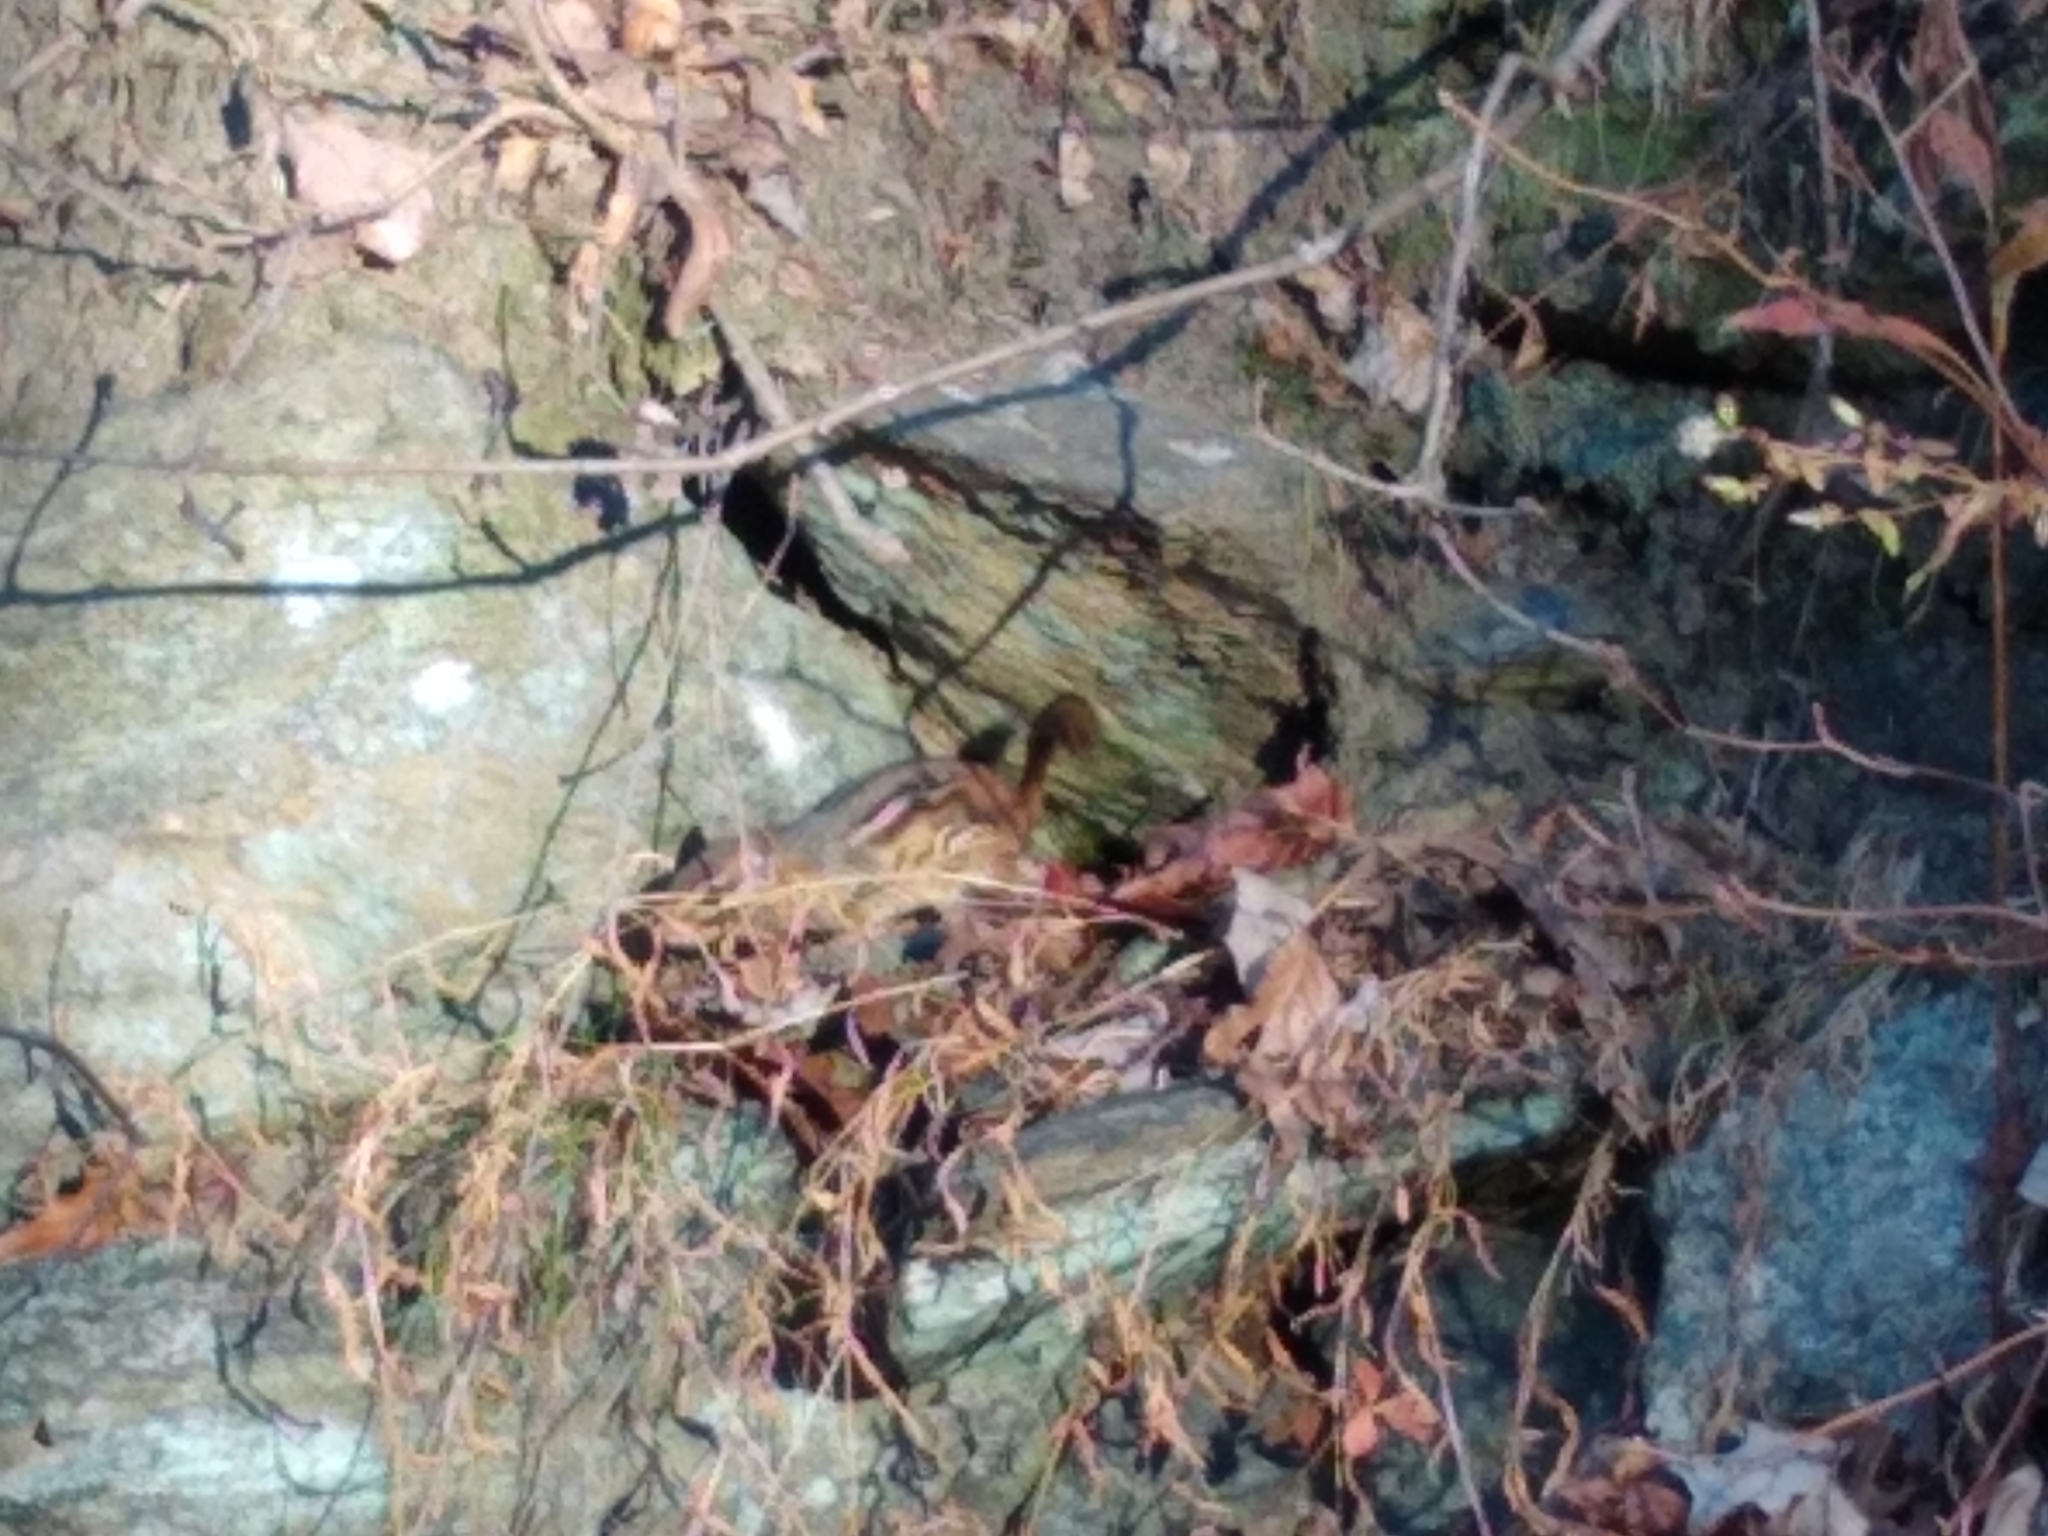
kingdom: Animalia
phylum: Chordata
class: Mammalia
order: Rodentia
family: Sciuridae
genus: Tamias
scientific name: Tamias striatus
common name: Eastern chipmunk
